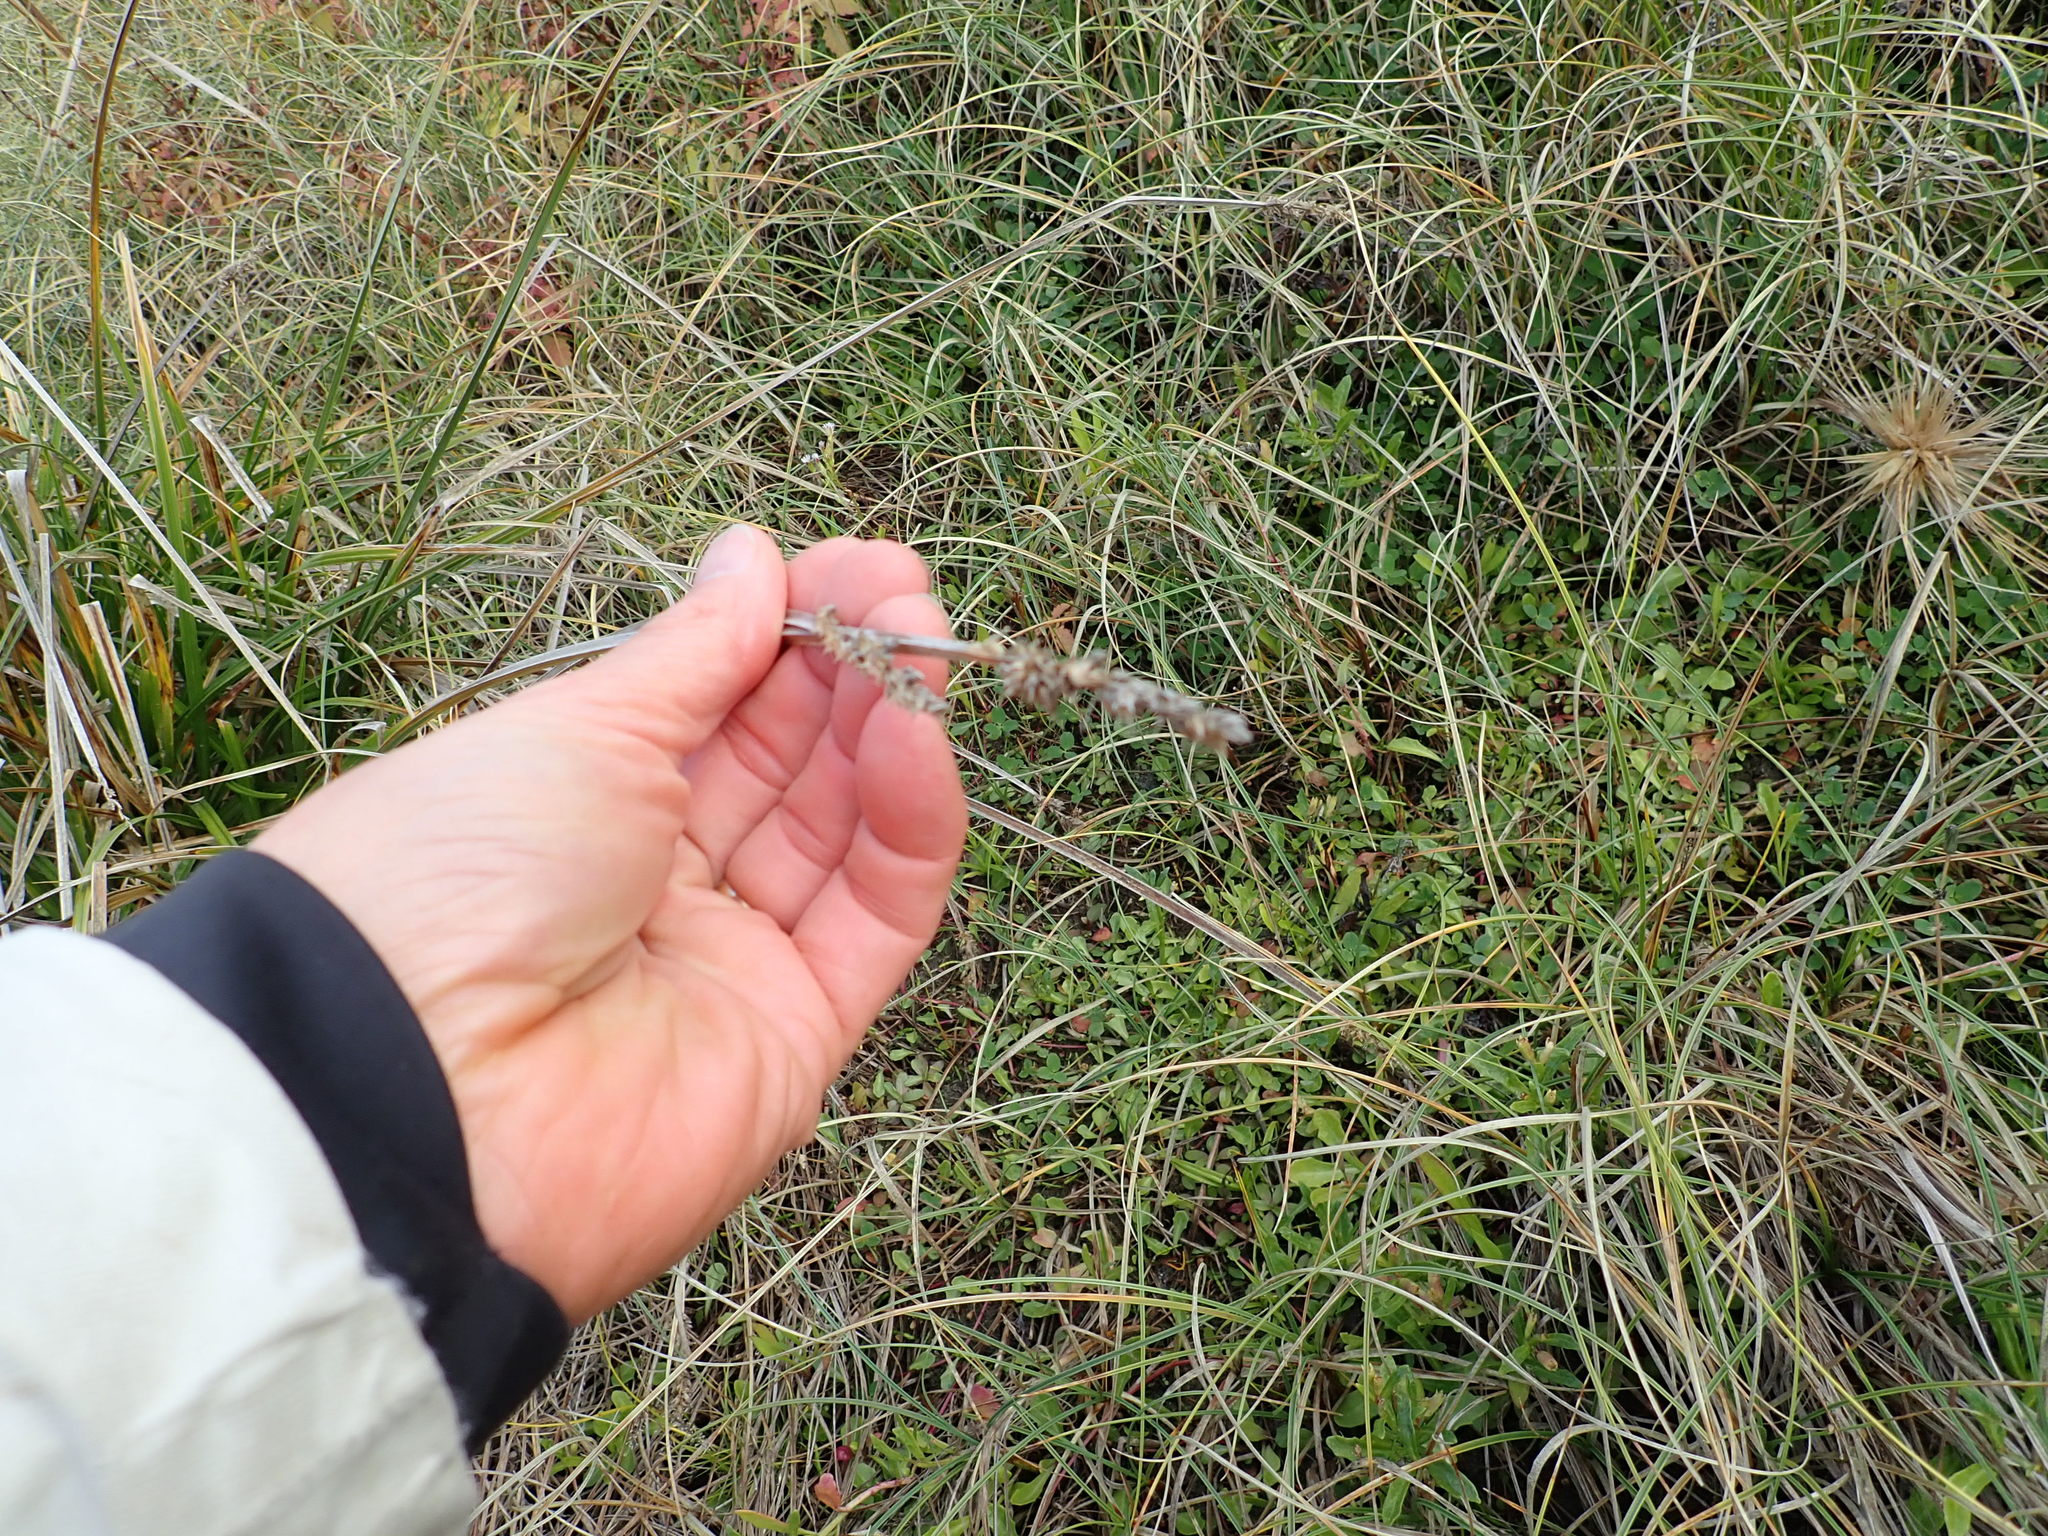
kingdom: Plantae
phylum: Tracheophyta
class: Liliopsida
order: Poales
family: Cyperaceae
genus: Carex
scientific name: Carex vulpinoidea
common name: American fox-sedge
